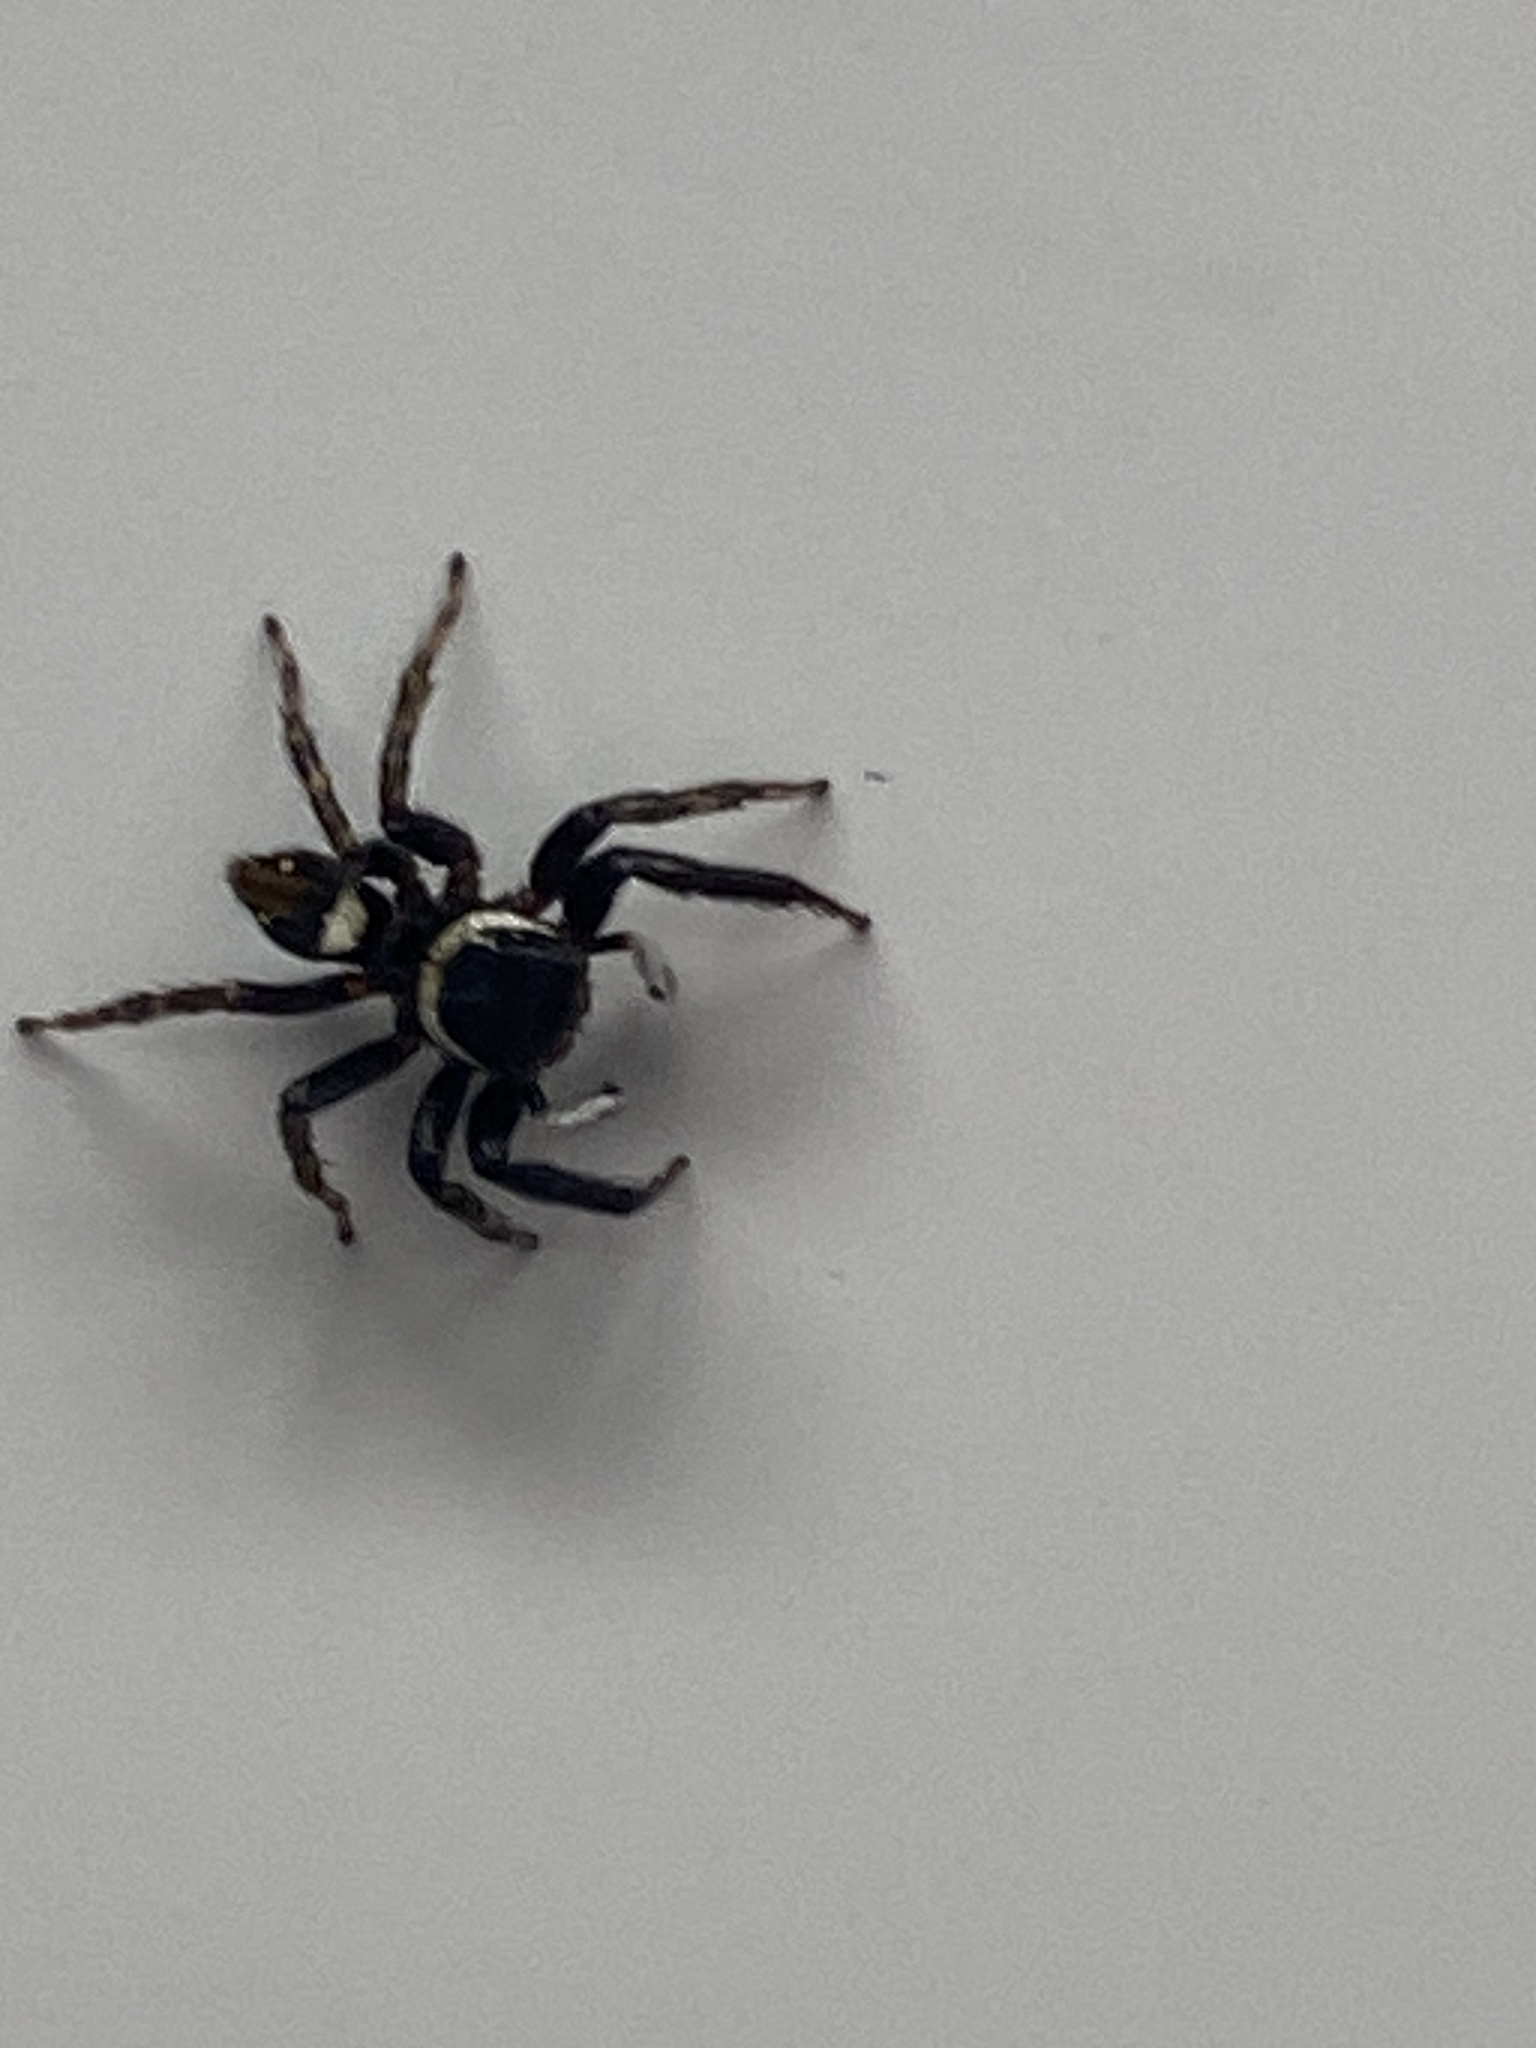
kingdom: Animalia
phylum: Arthropoda
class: Arachnida
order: Araneae
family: Salticidae
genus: Hasarius
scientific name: Hasarius adansoni
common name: Jumping spider
